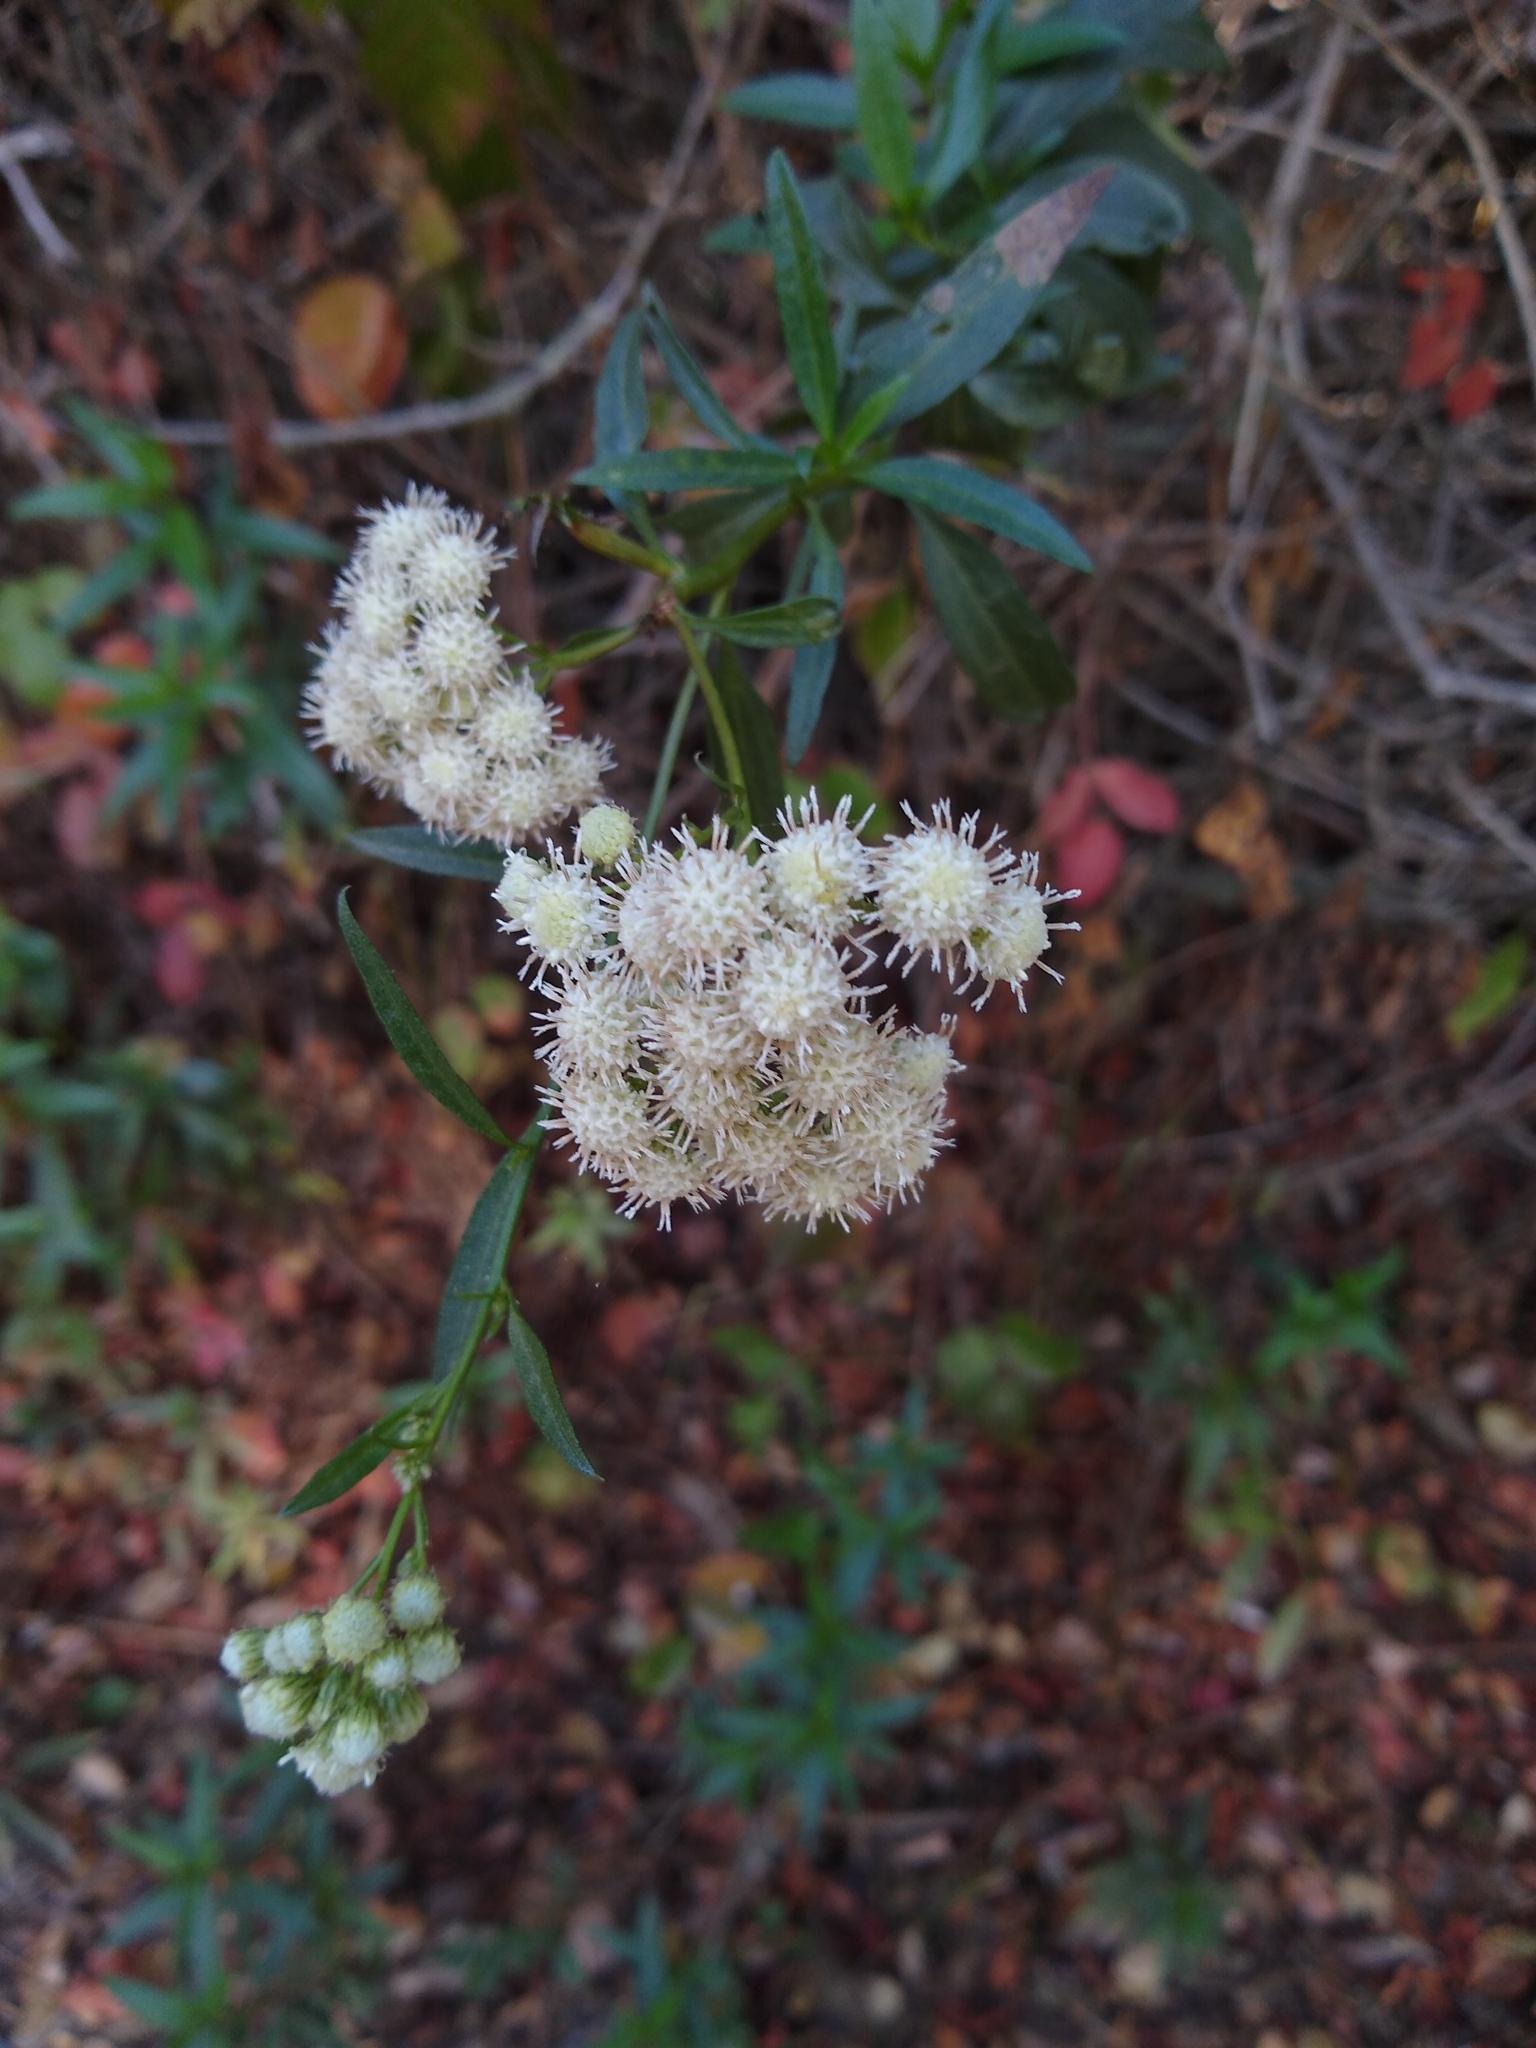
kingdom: Plantae
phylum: Tracheophyta
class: Magnoliopsida
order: Asterales
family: Asteraceae
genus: Baccharis
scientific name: Baccharis glutinosa
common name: Saltmarsh baccharis
